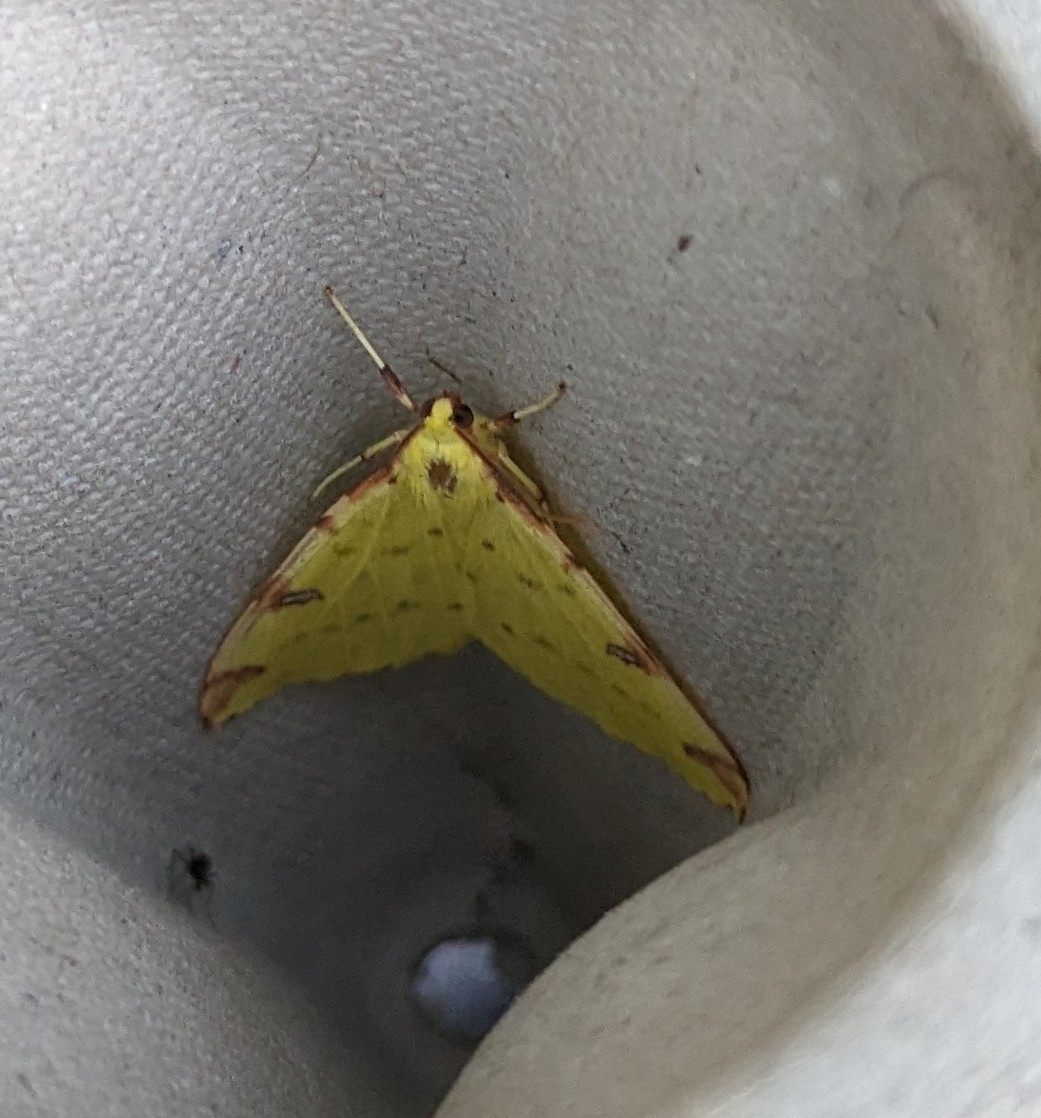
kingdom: Animalia
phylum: Arthropoda
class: Insecta
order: Lepidoptera
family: Geometridae
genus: Opisthograptis
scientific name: Opisthograptis luteolata
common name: Brimstone moth
